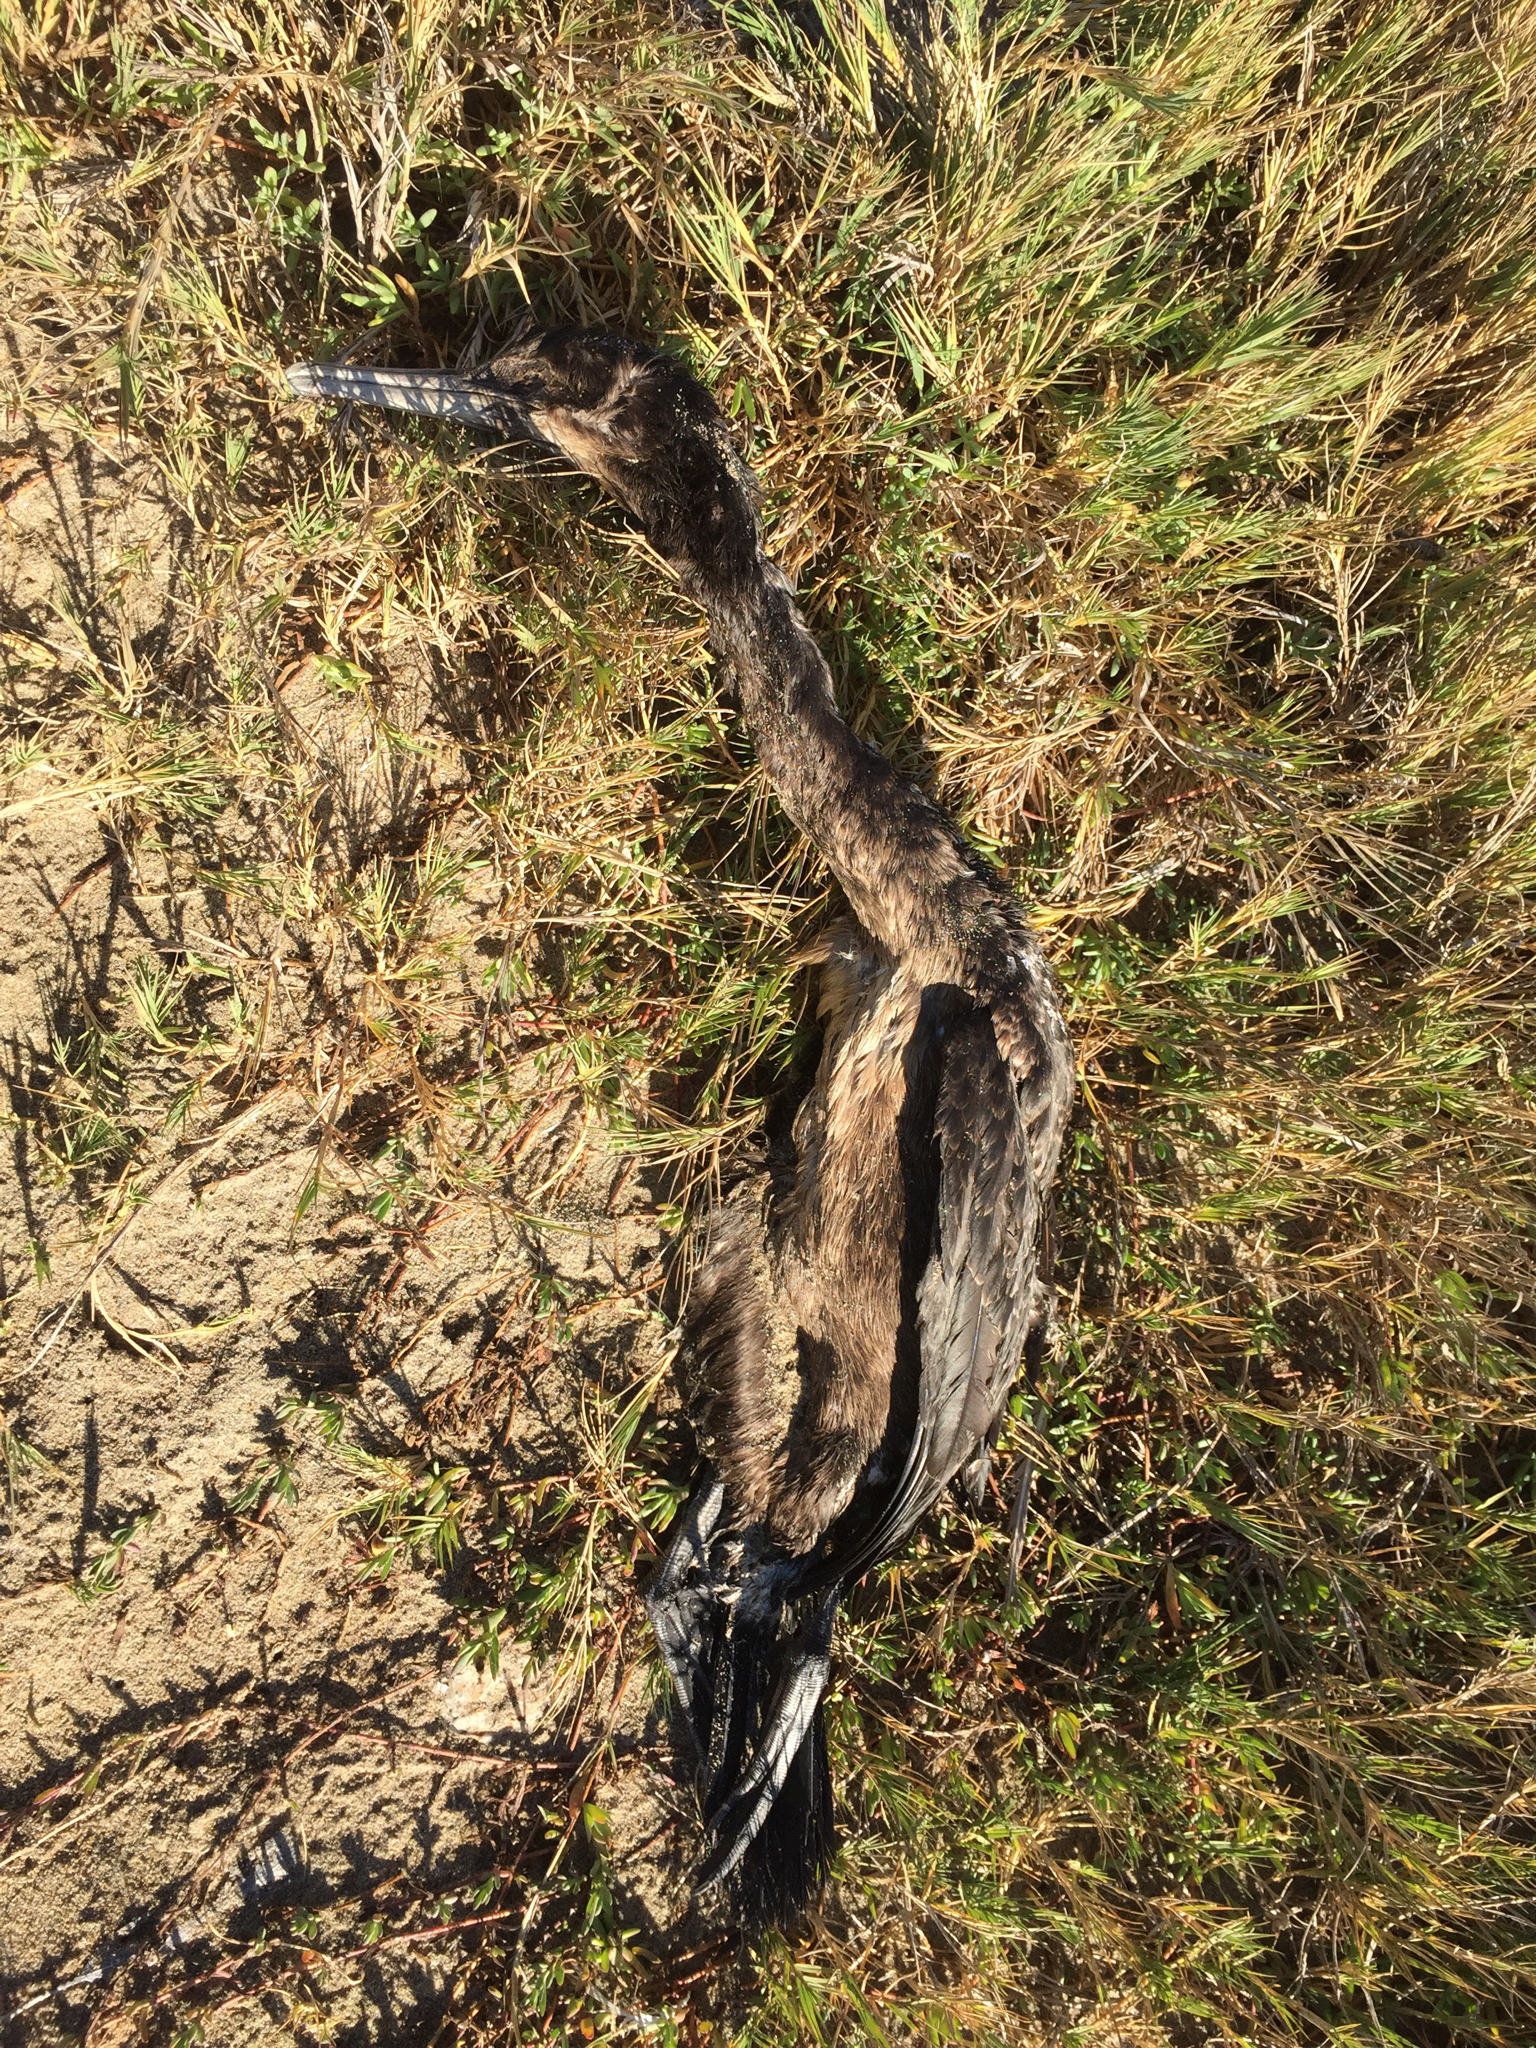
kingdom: Animalia
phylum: Chordata
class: Aves
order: Suliformes
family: Phalacrocoracidae
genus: Urile
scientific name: Urile penicillatus
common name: Brandt's cormorant
